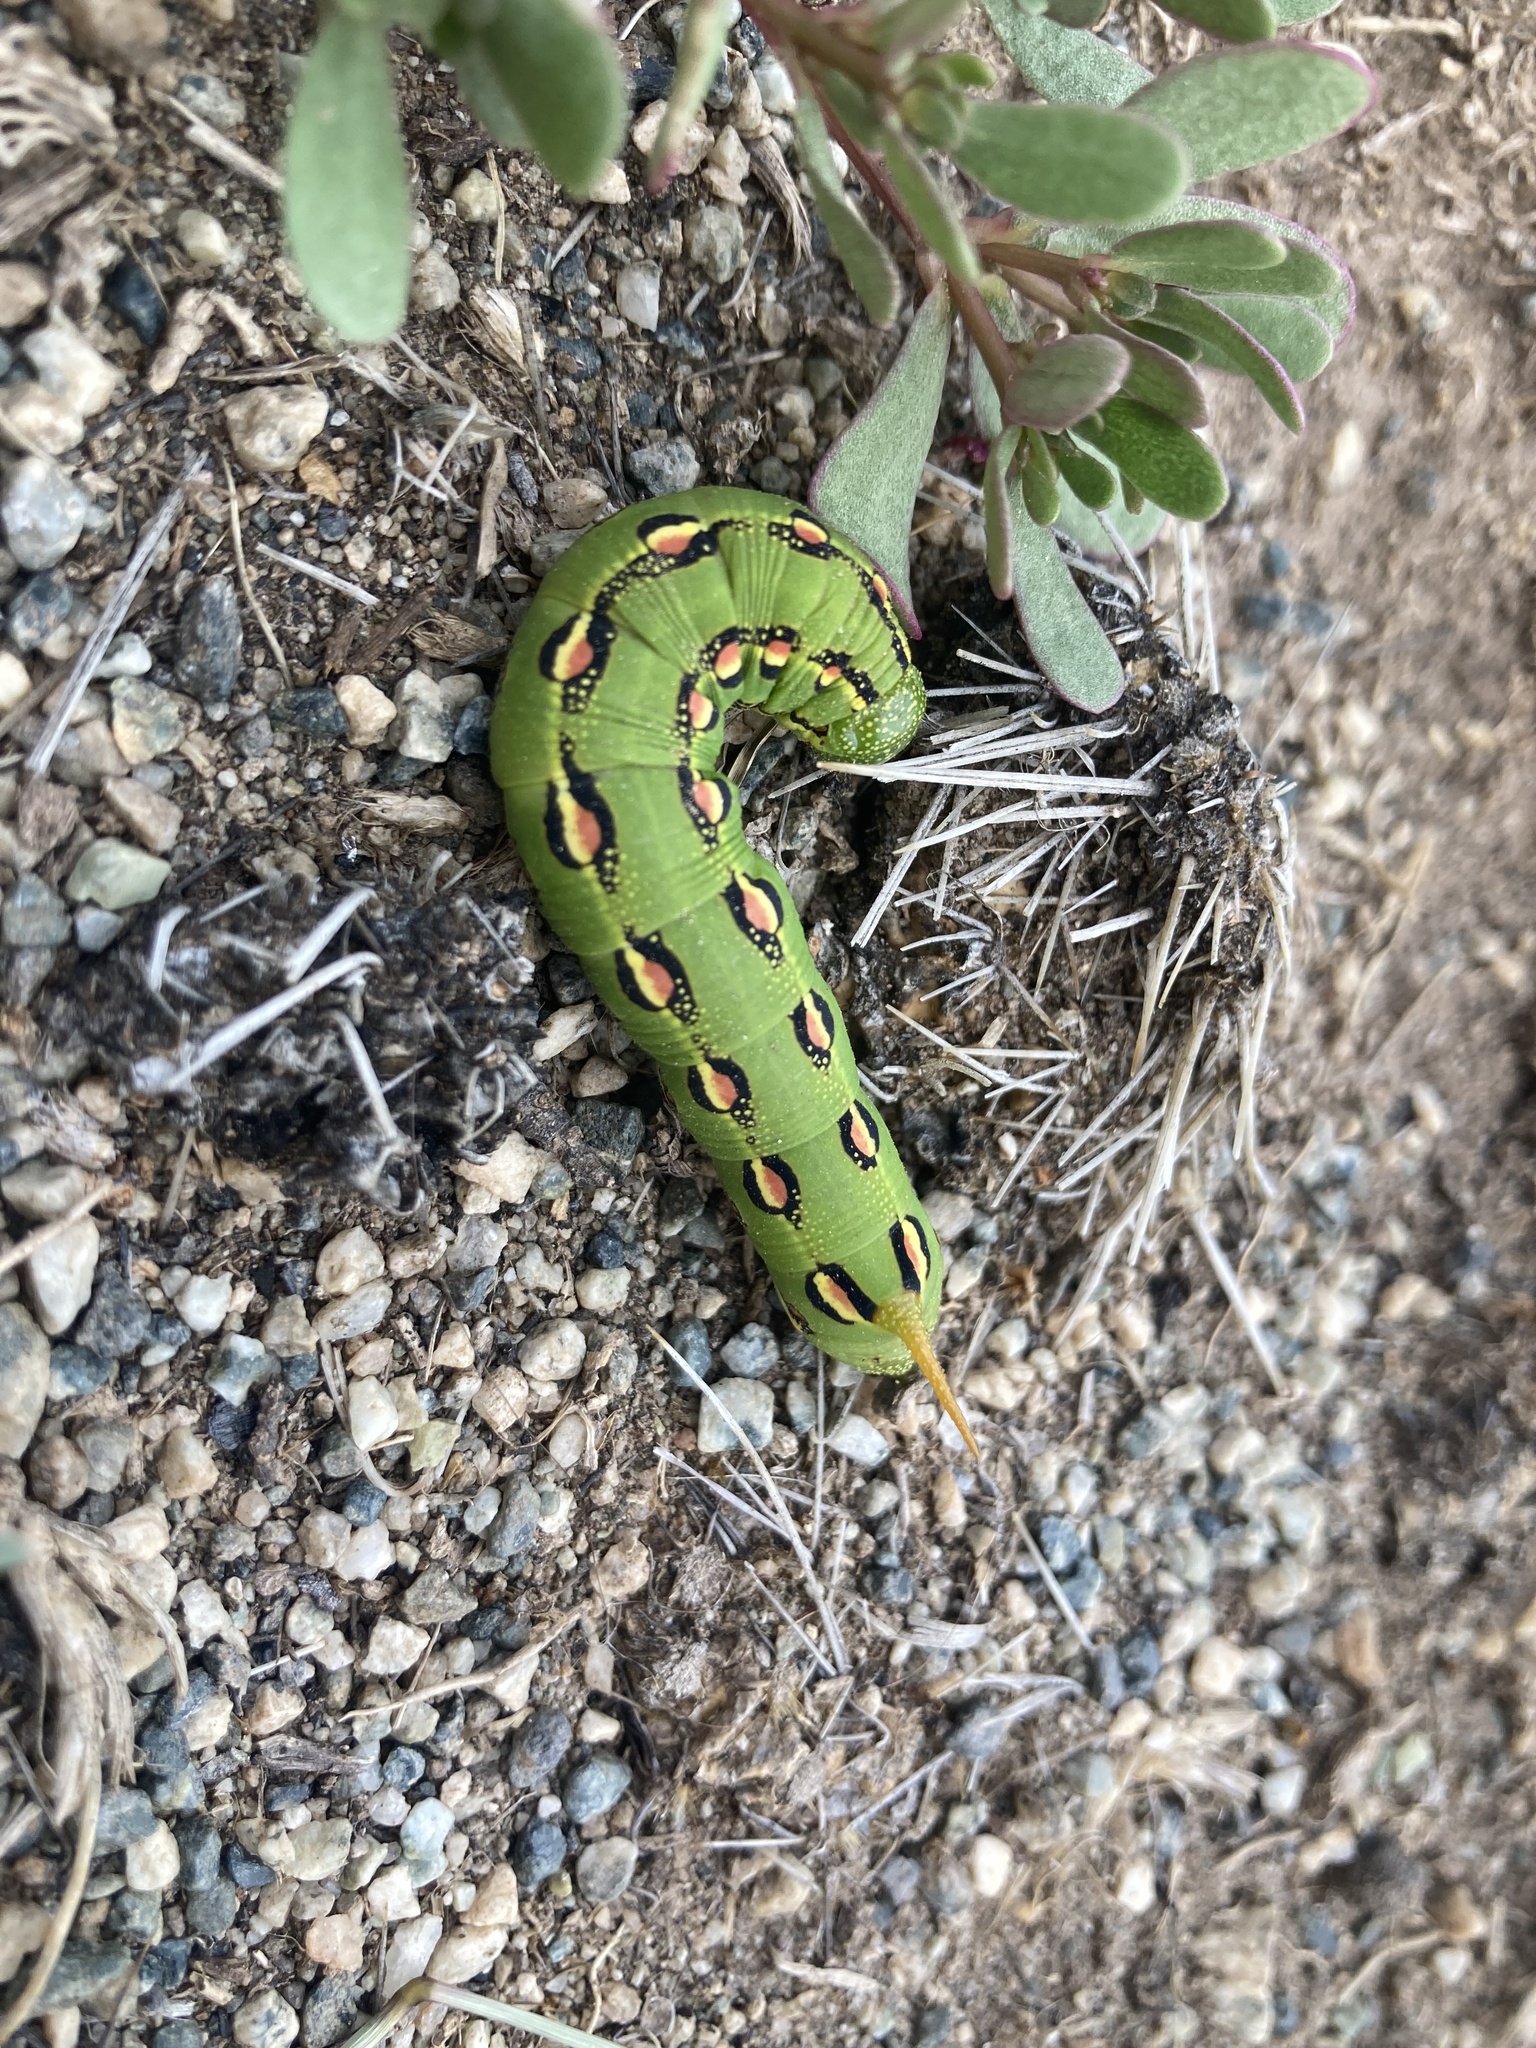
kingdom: Animalia
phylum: Arthropoda
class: Insecta
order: Lepidoptera
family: Sphingidae
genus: Hyles
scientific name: Hyles lineata
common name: White-lined sphinx
